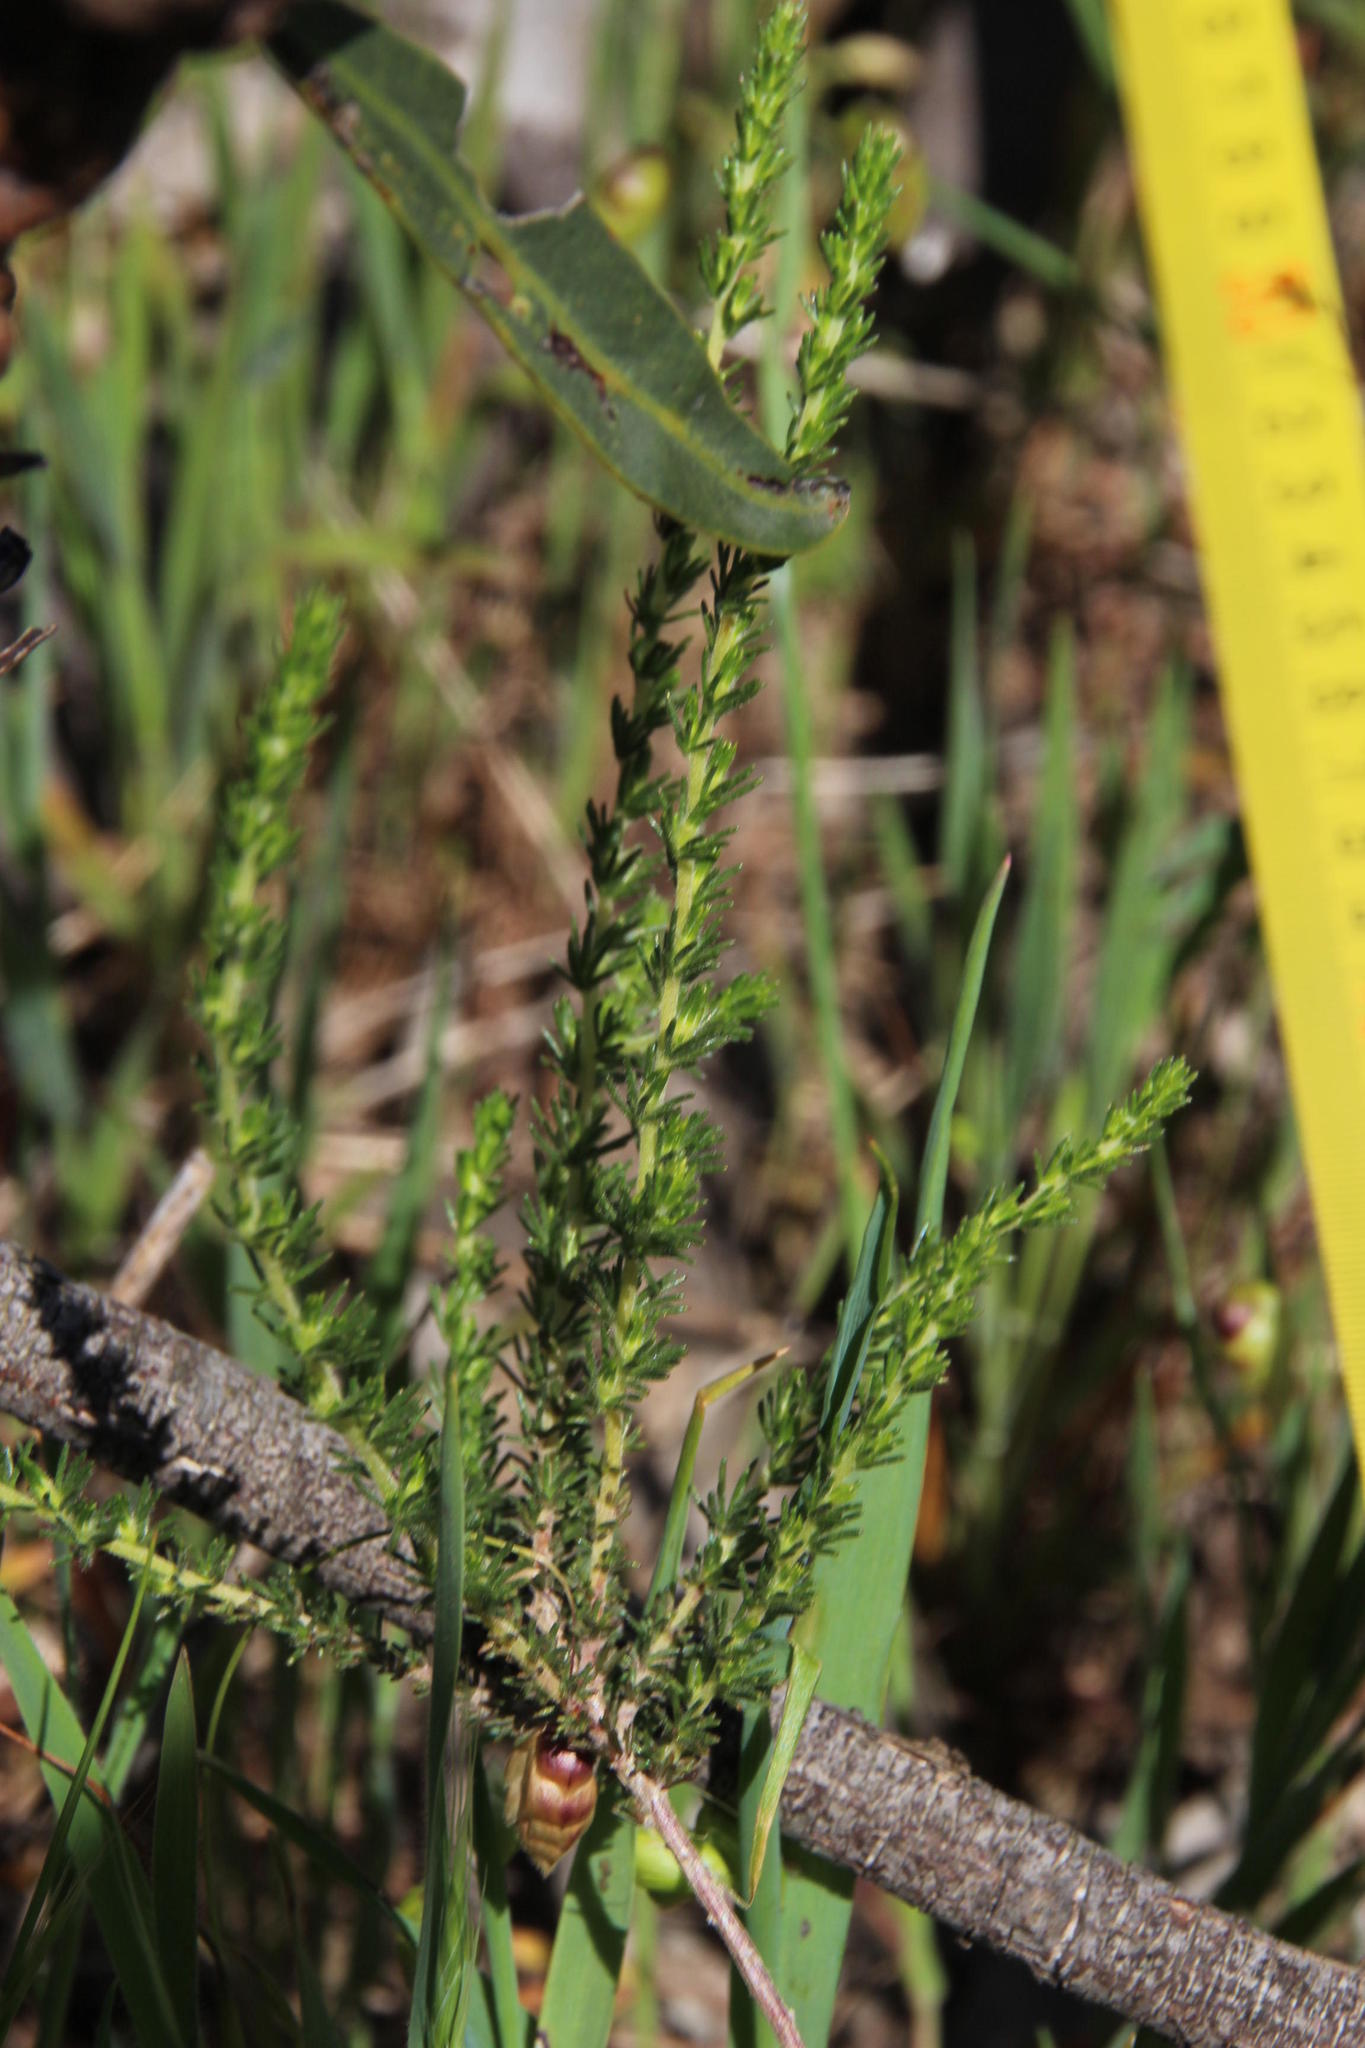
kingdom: Plantae
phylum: Tracheophyta
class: Magnoliopsida
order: Fabales
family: Fabaceae
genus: Aspalathus
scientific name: Aspalathus flexuosa
